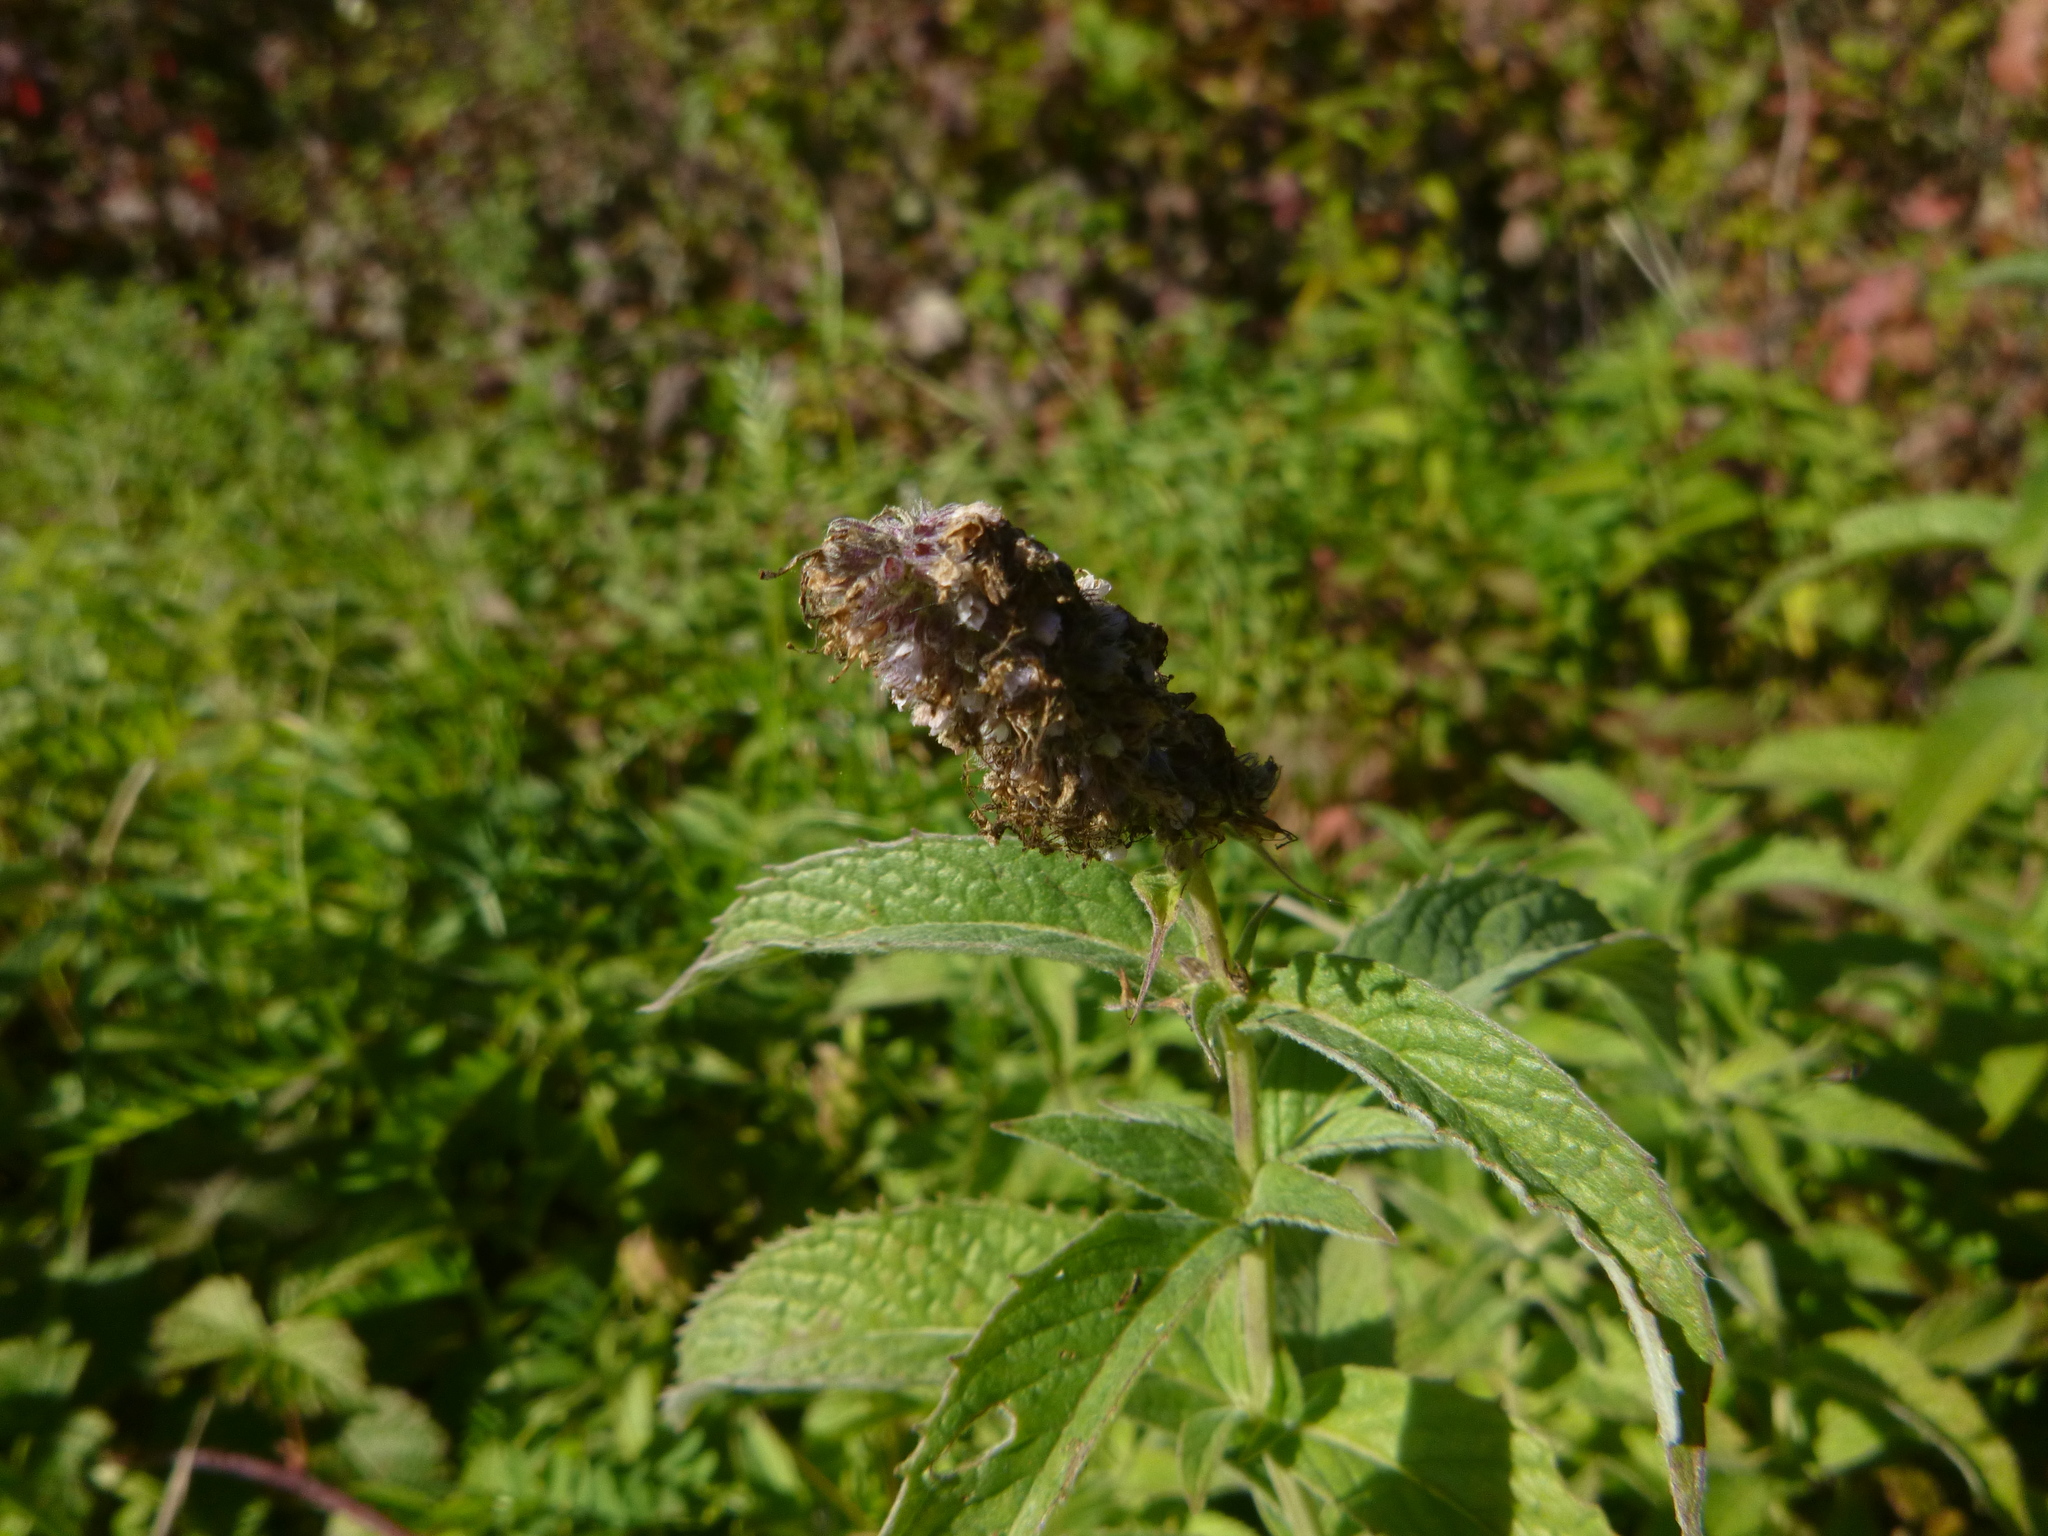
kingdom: Plantae
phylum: Tracheophyta
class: Magnoliopsida
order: Lamiales
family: Lamiaceae
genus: Mentha
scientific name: Mentha longifolia
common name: Horse mint
